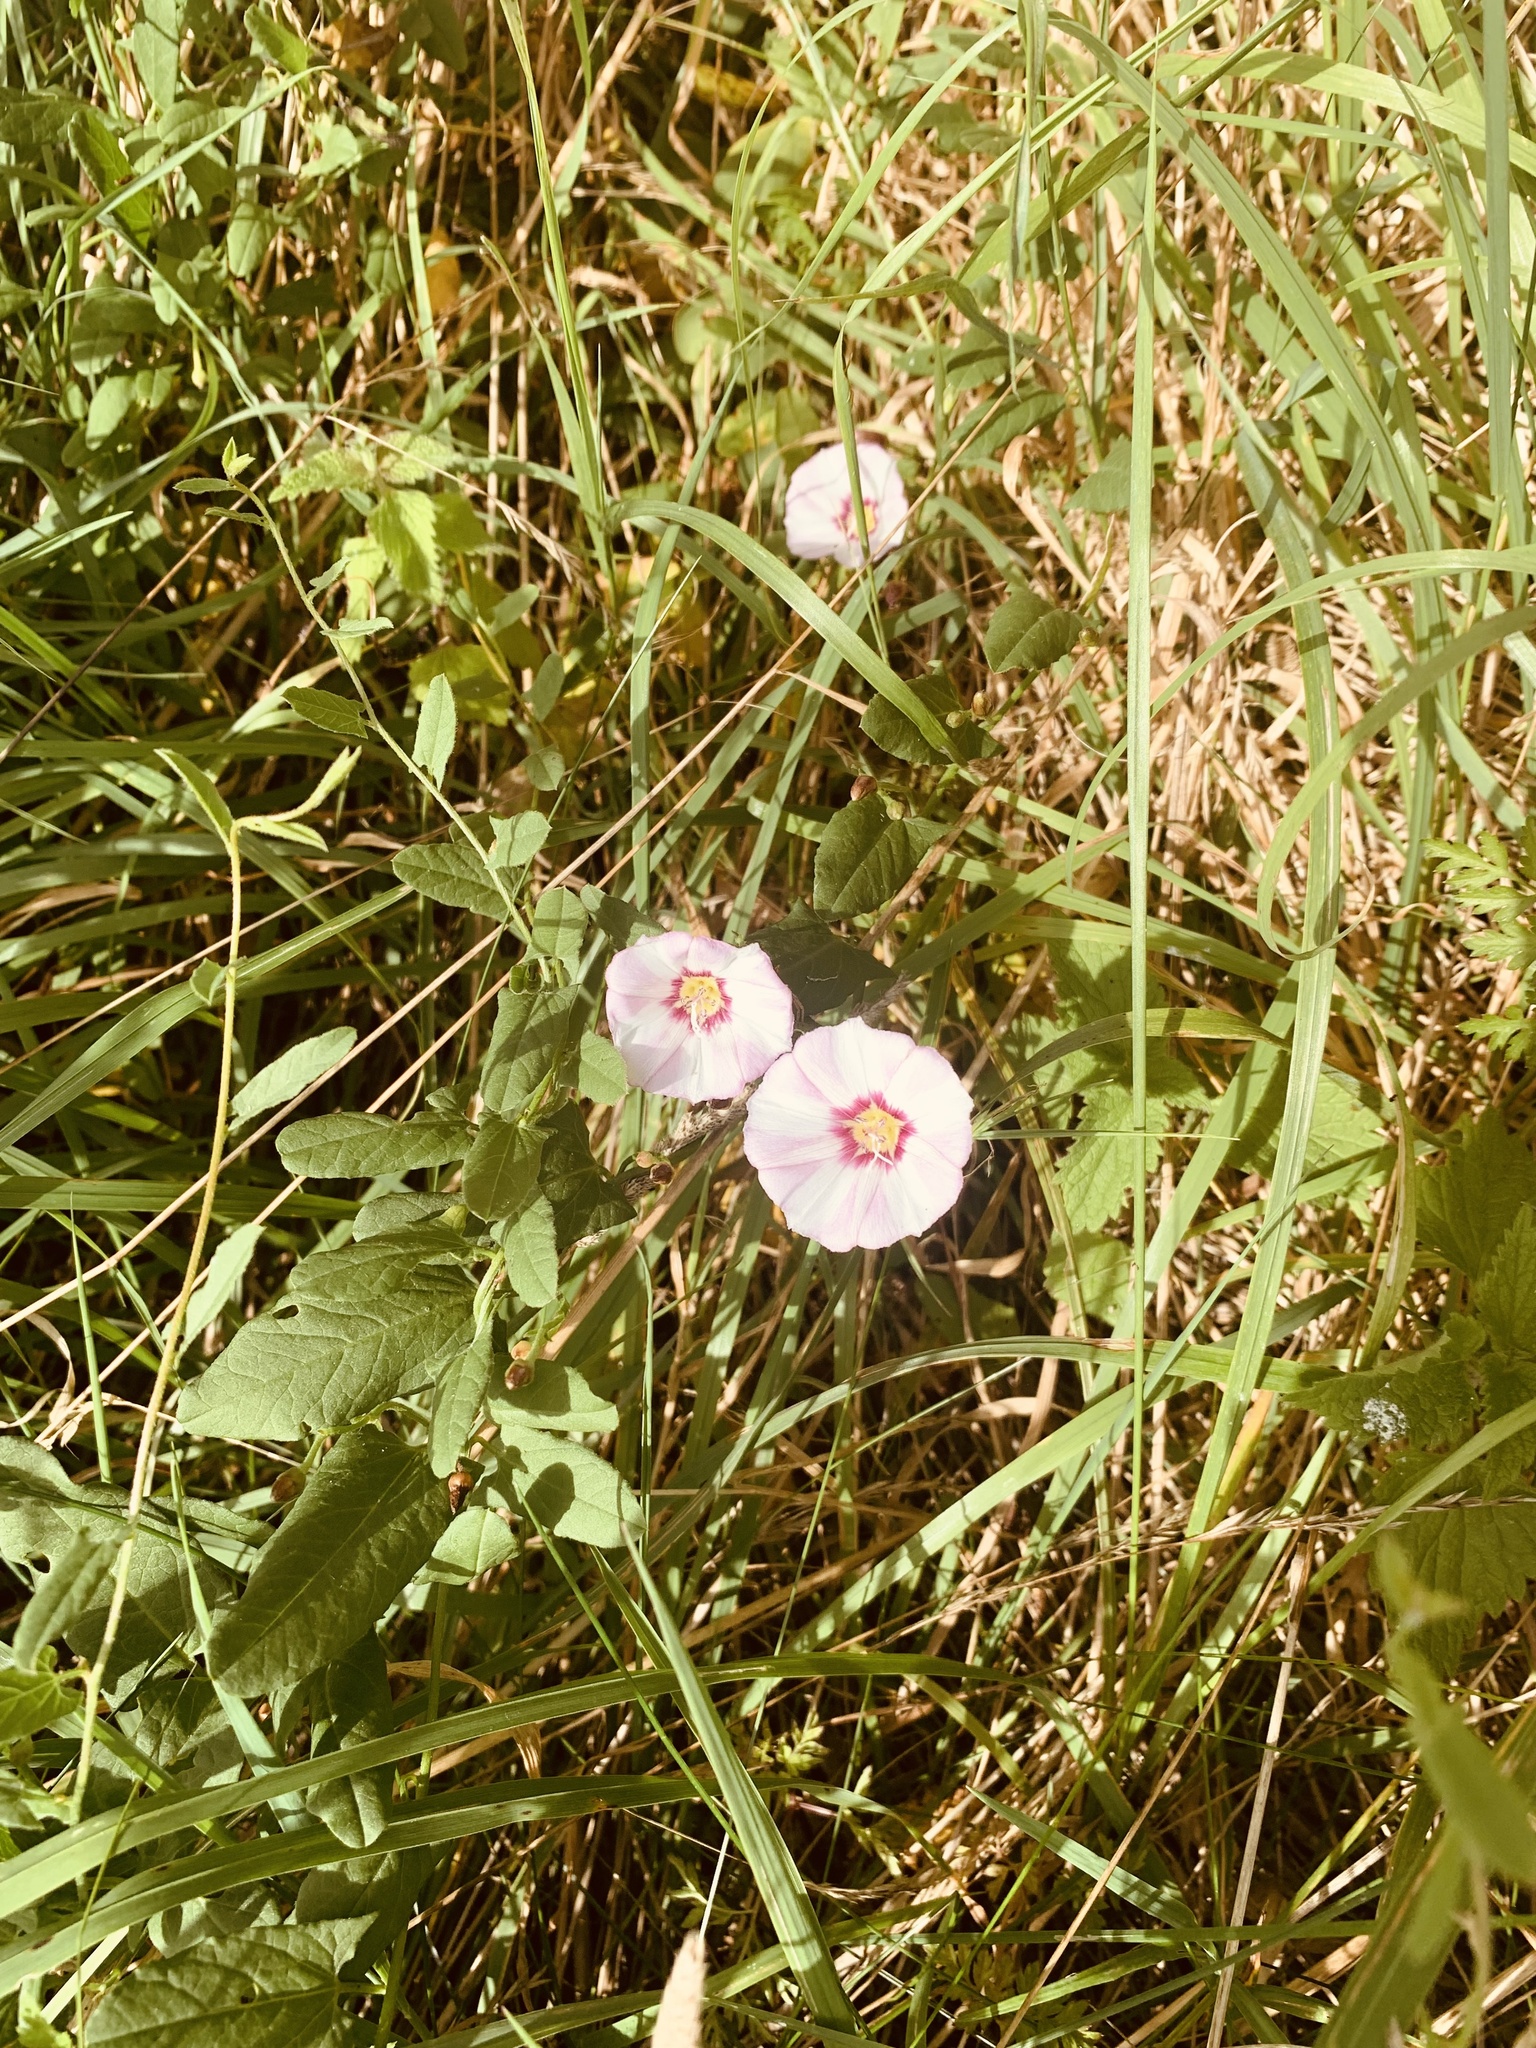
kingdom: Plantae
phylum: Tracheophyta
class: Magnoliopsida
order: Solanales
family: Convolvulaceae
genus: Convolvulus
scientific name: Convolvulus arvensis
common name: Field bindweed
